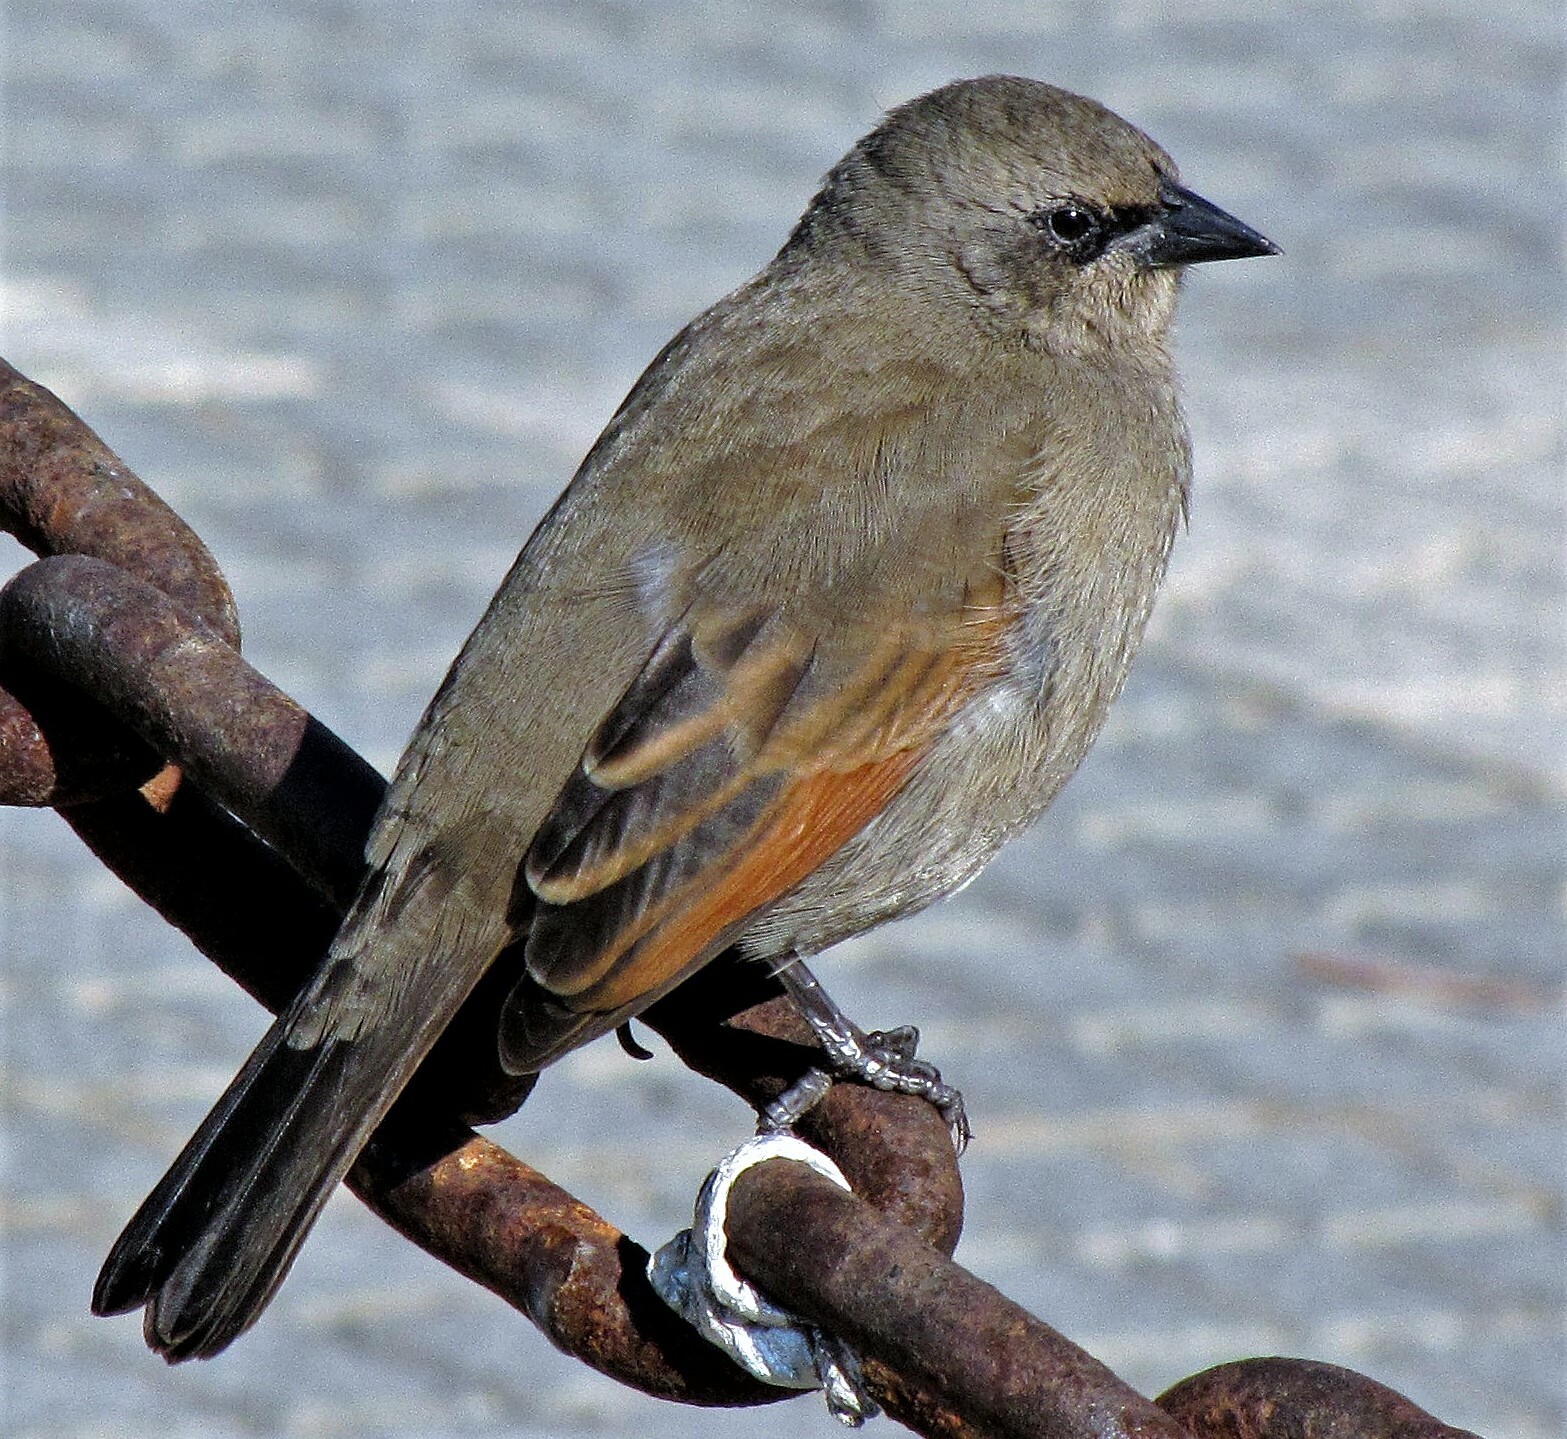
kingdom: Animalia
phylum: Chordata
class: Aves
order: Passeriformes
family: Icteridae
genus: Agelaioides
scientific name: Agelaioides badius
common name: Baywing
